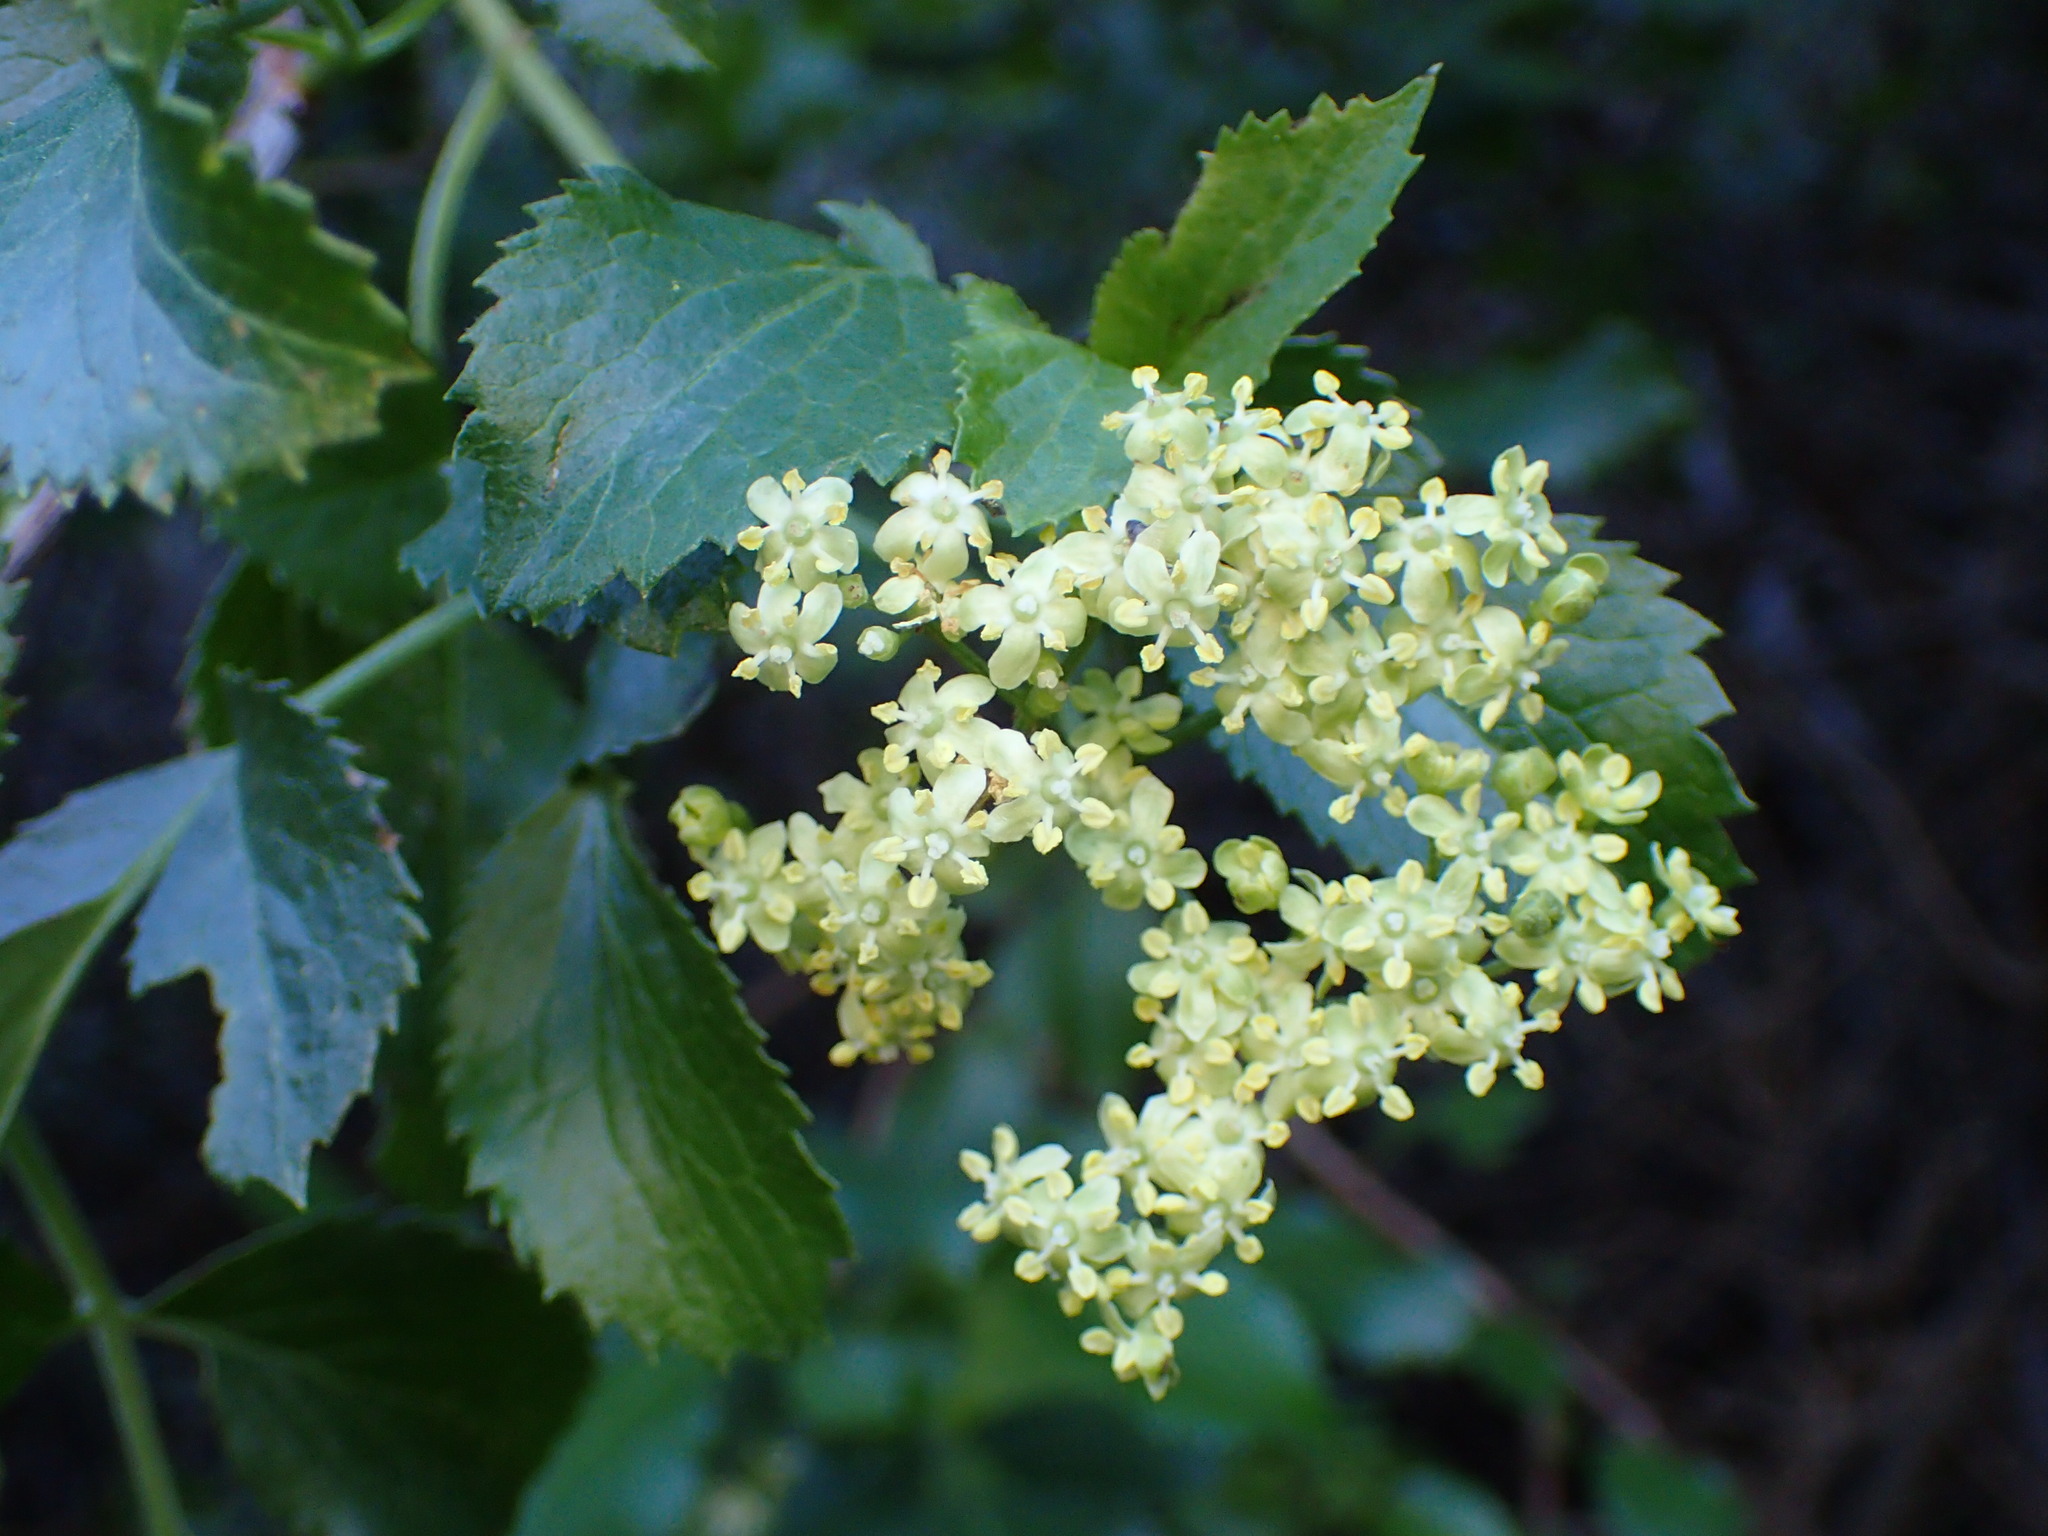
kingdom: Plantae
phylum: Tracheophyta
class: Magnoliopsida
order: Dipsacales
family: Viburnaceae
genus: Sambucus
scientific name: Sambucus cerulea
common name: Blue elder
